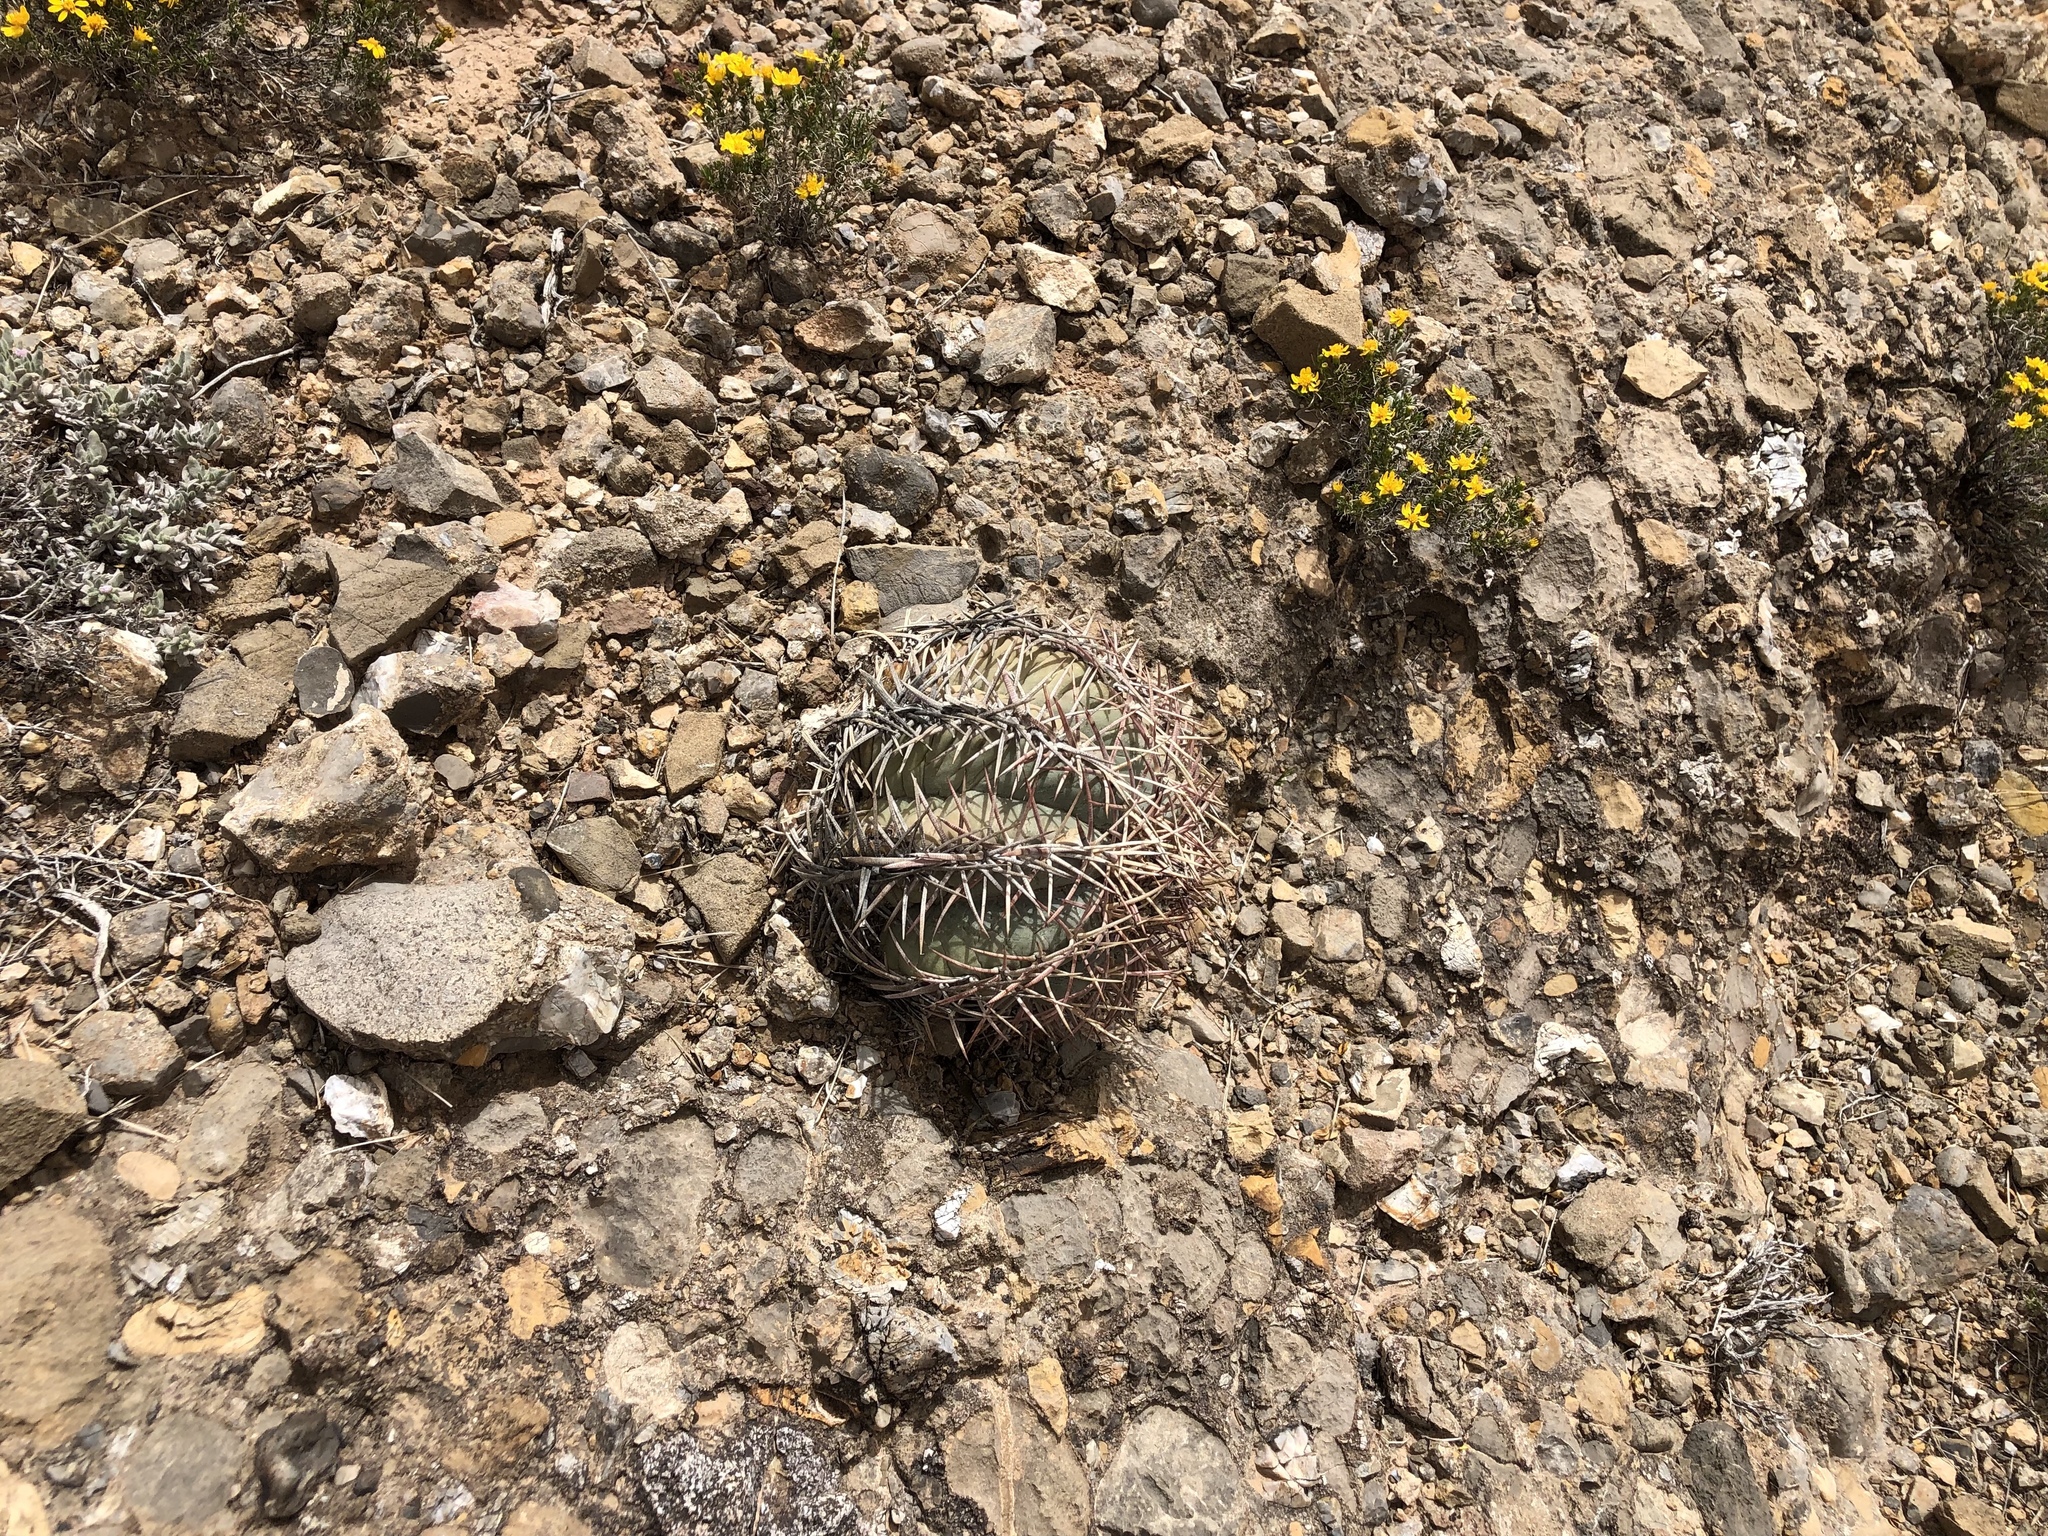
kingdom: Plantae
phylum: Tracheophyta
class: Magnoliopsida
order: Caryophyllales
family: Cactaceae
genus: Echinocactus
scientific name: Echinocactus horizonthalonius
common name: Devilshead
